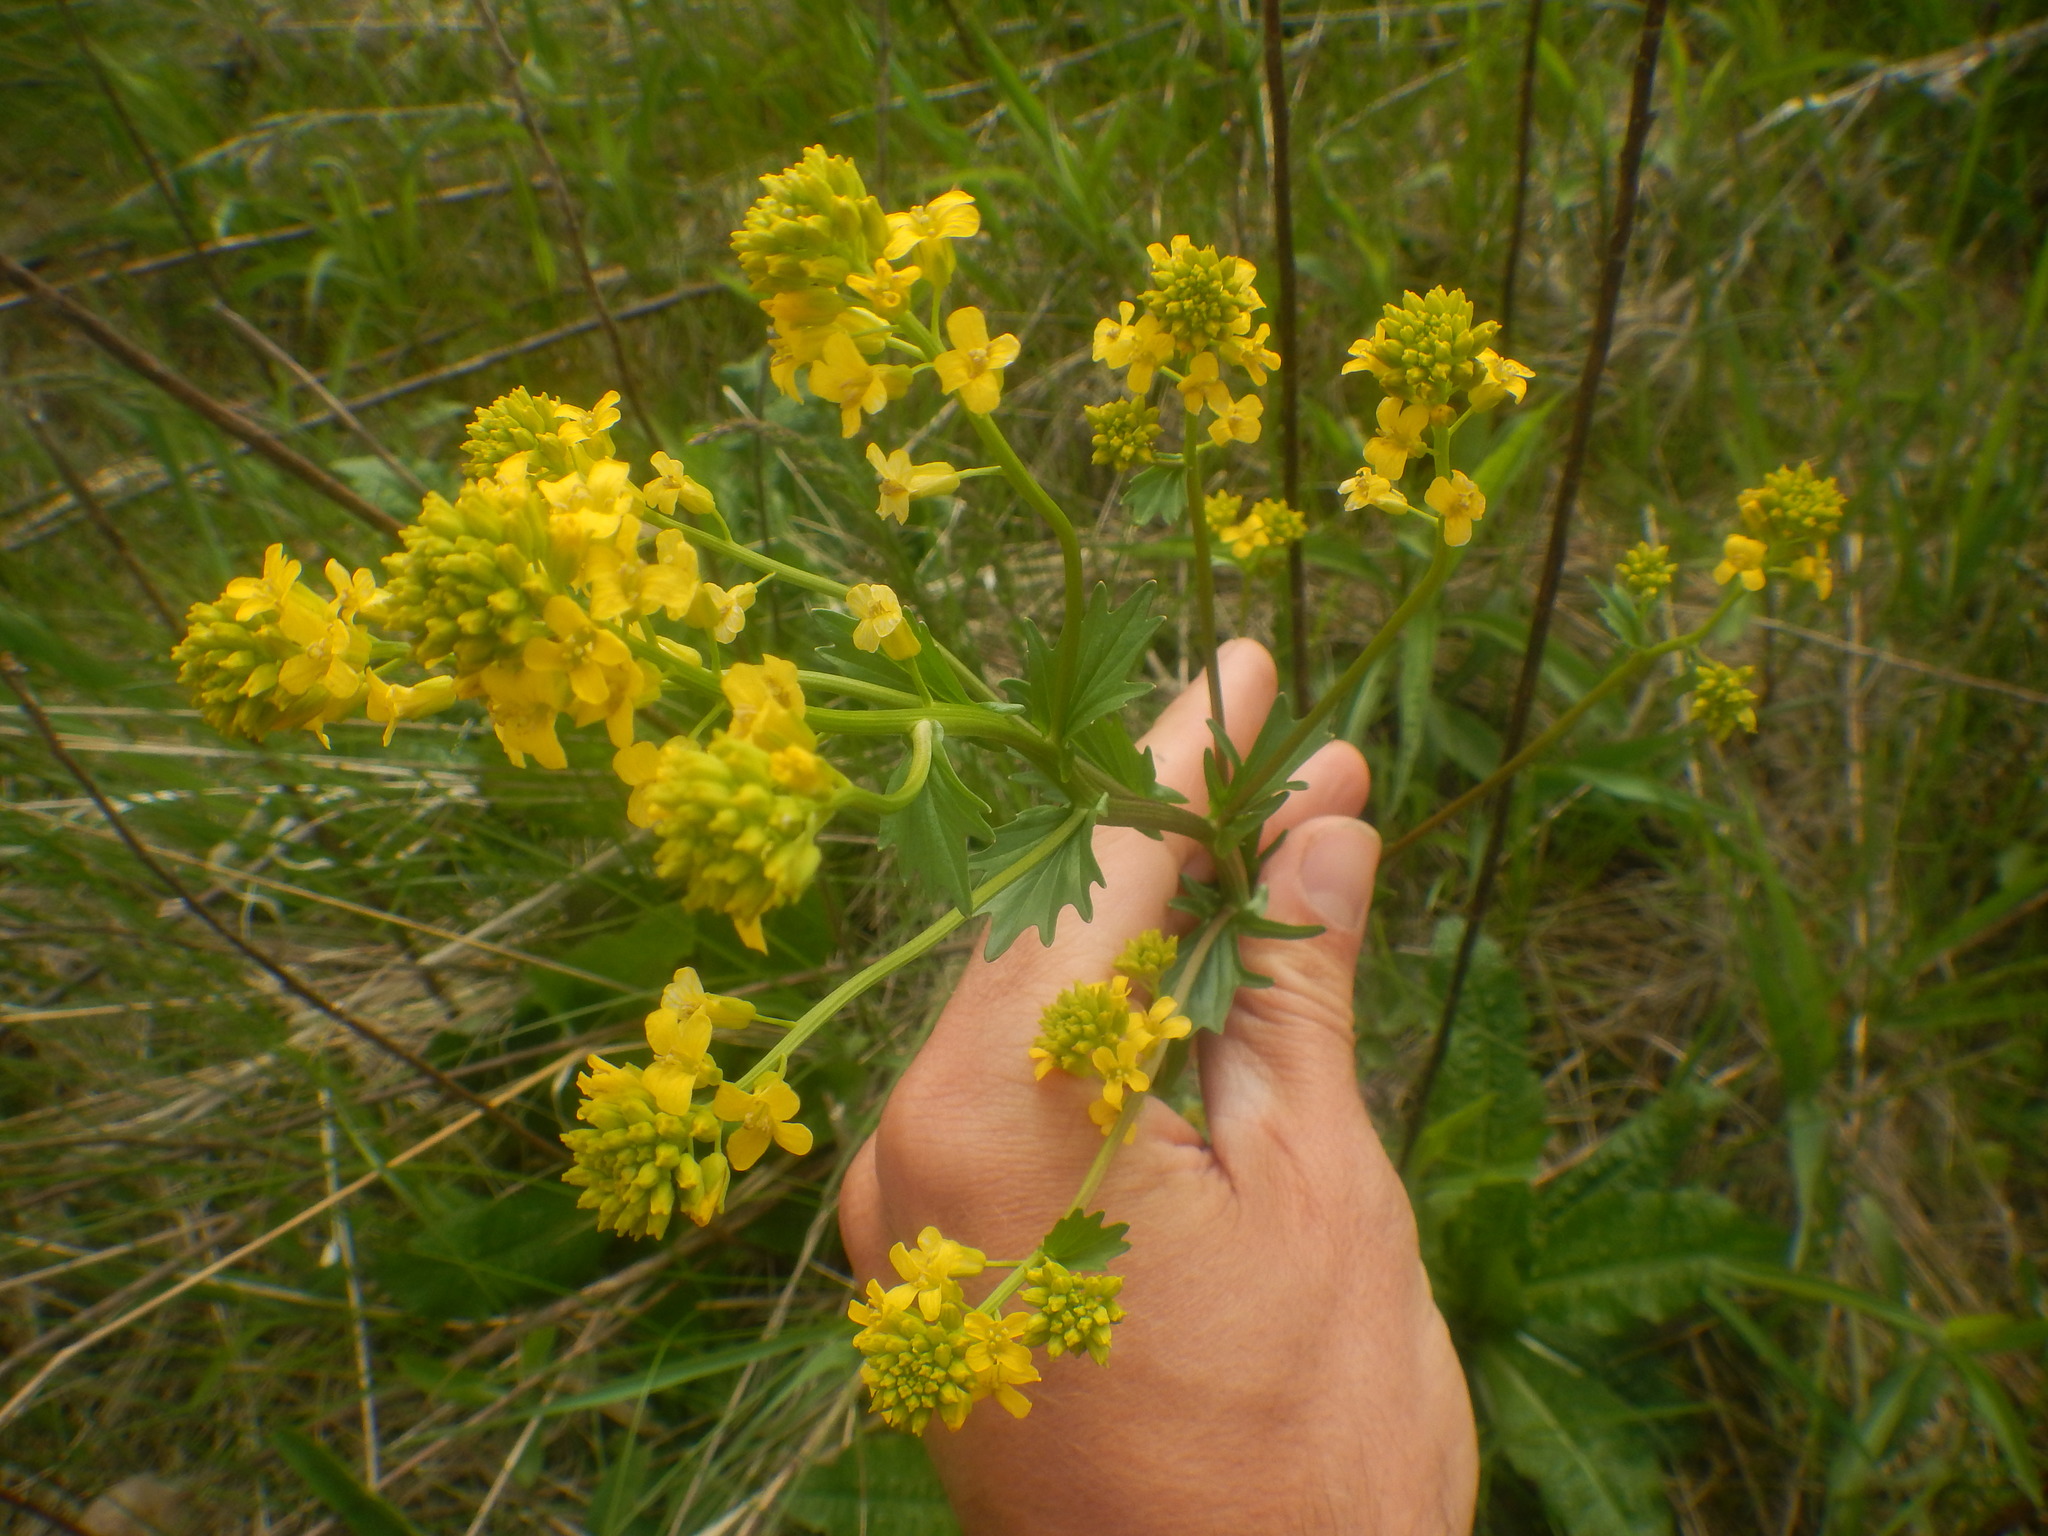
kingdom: Plantae
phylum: Tracheophyta
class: Magnoliopsida
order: Brassicales
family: Brassicaceae
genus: Barbarea
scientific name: Barbarea vulgaris
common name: Cressy-greens
